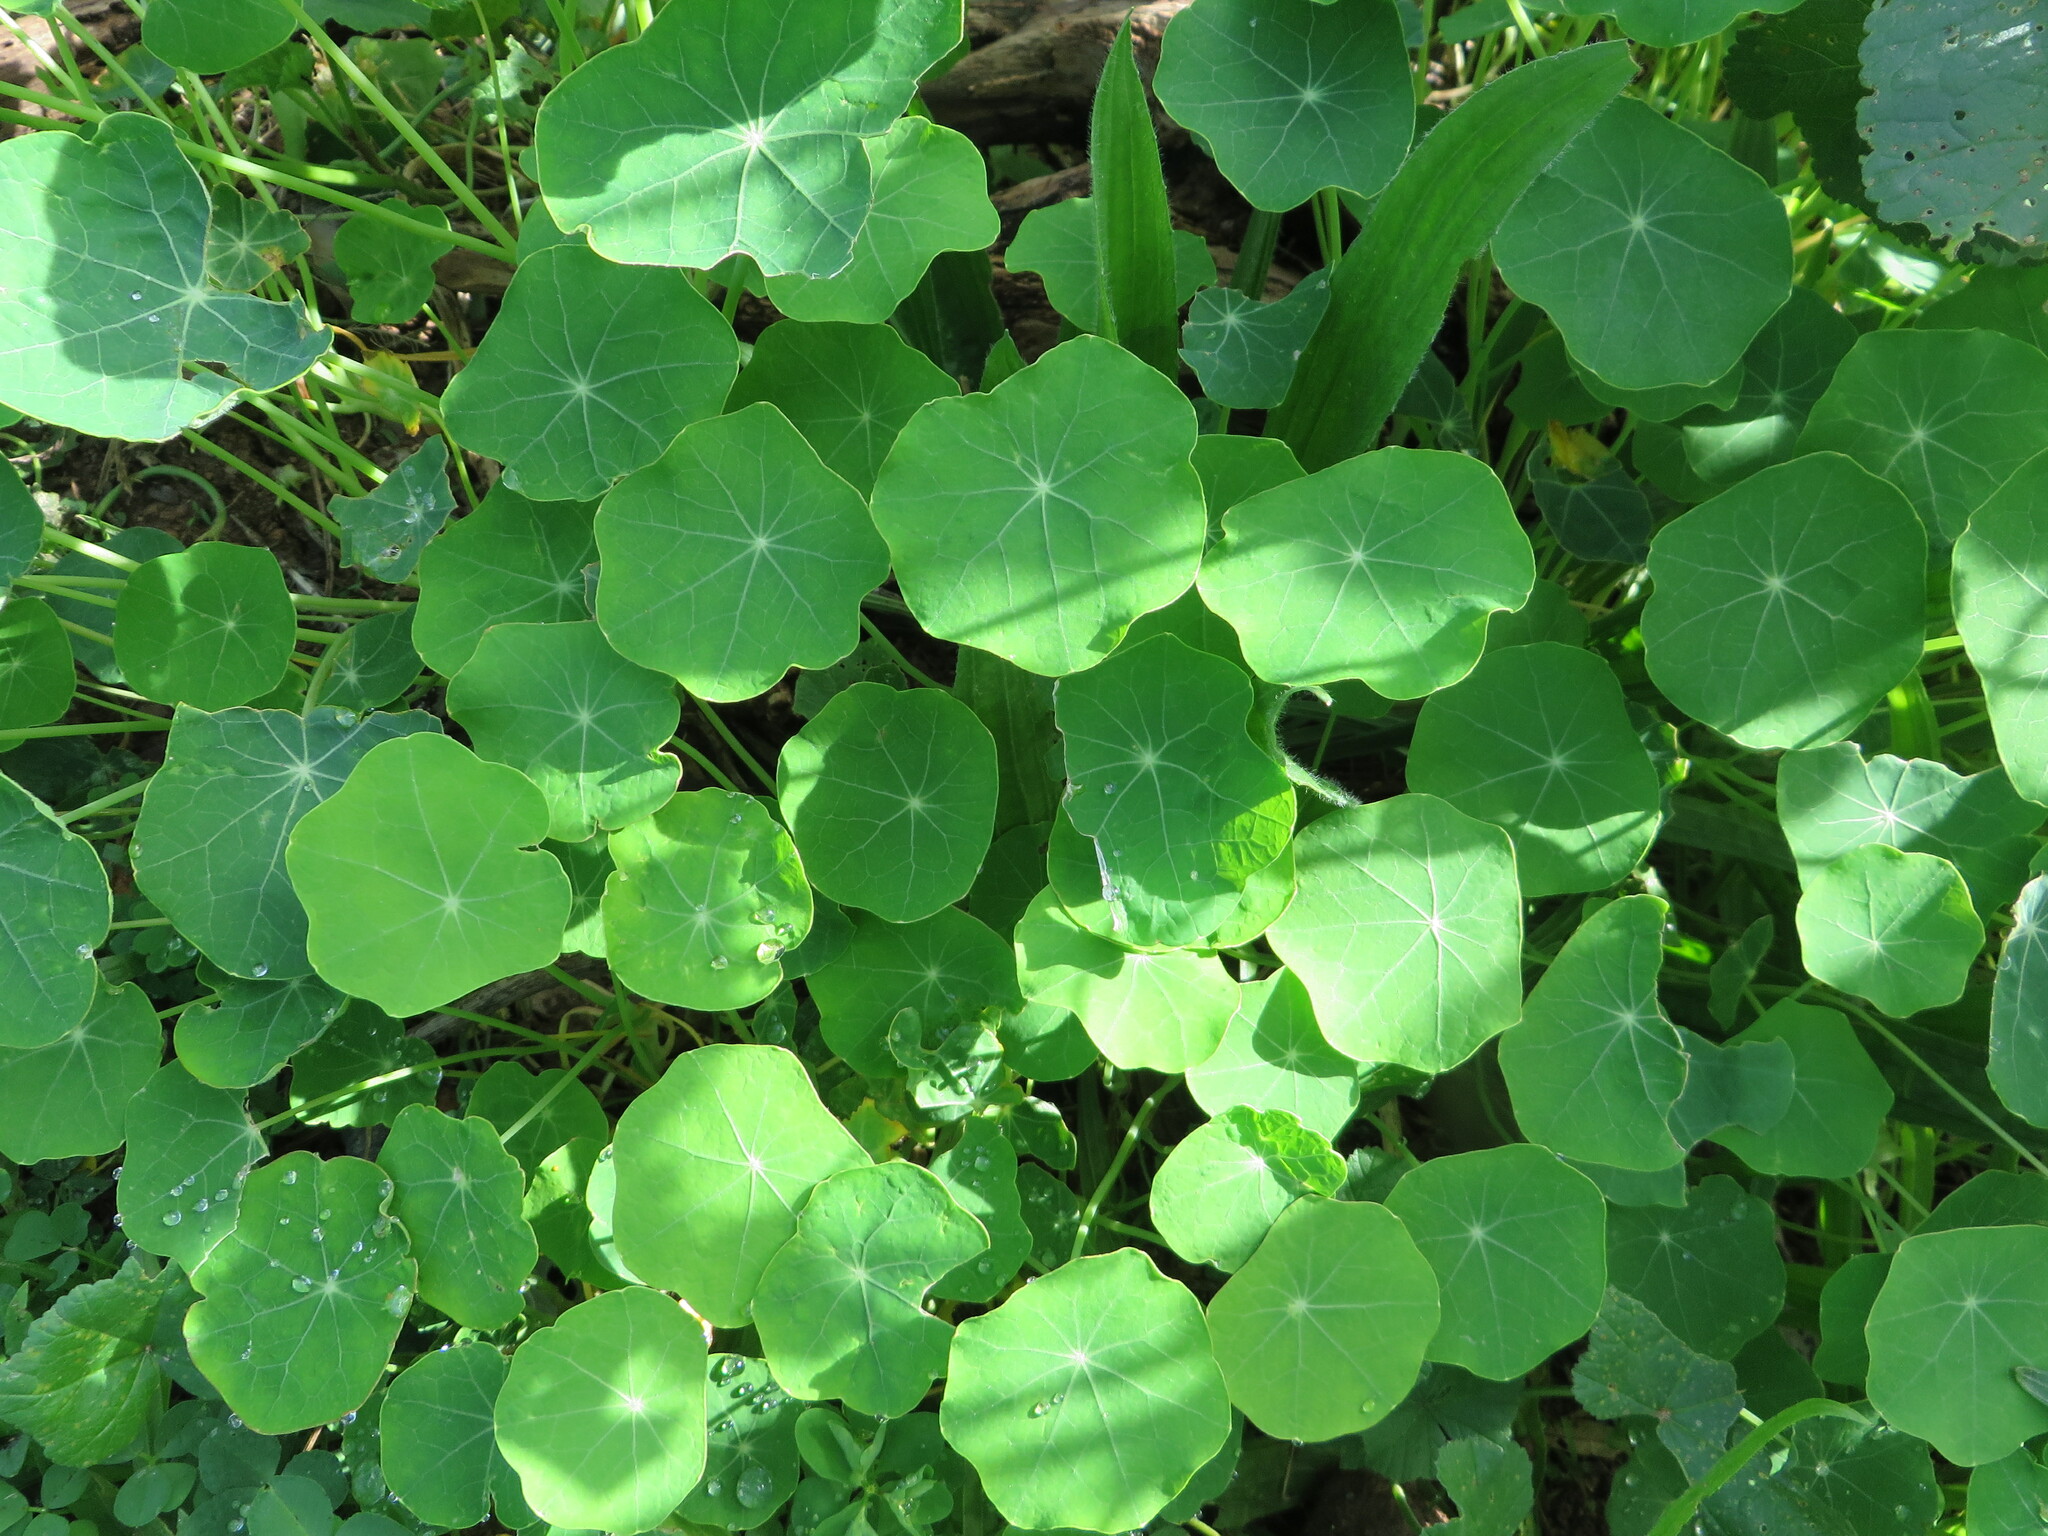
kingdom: Plantae
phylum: Tracheophyta
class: Magnoliopsida
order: Brassicales
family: Tropaeolaceae
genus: Tropaeolum
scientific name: Tropaeolum majus
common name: Nasturtium
